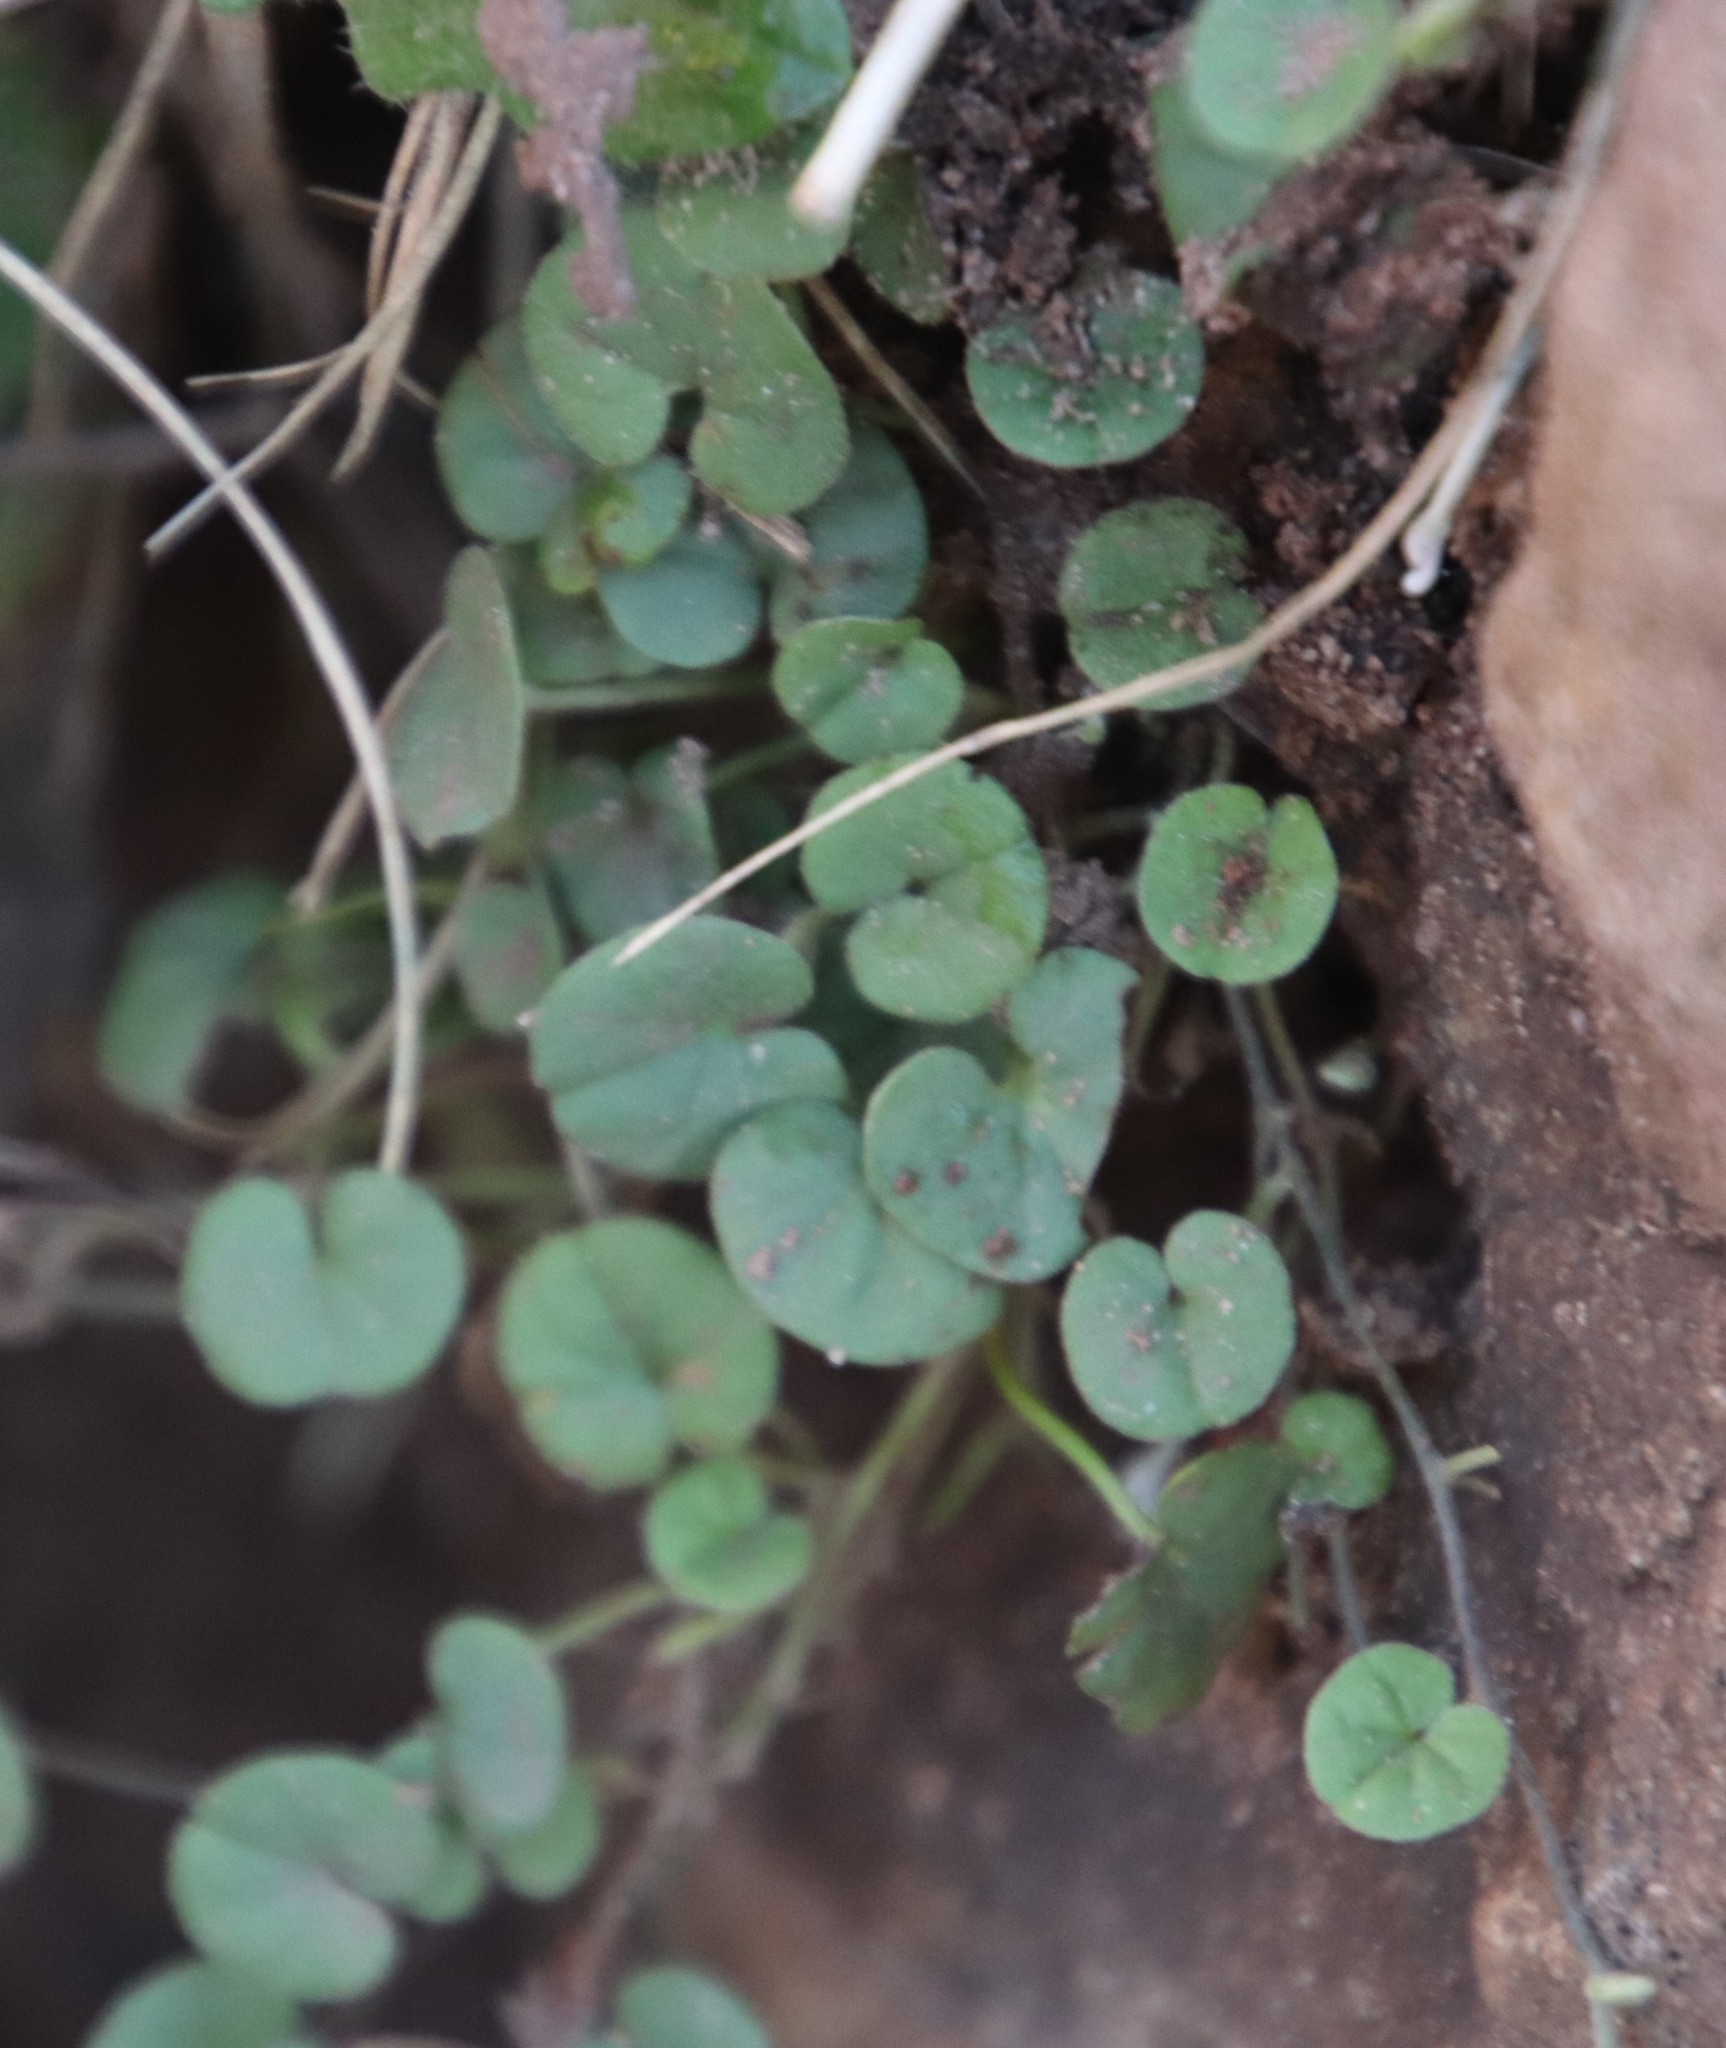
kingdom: Plantae
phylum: Tracheophyta
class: Magnoliopsida
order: Solanales
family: Convolvulaceae
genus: Dichondra
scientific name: Dichondra micrantha
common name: Kidneyweed
